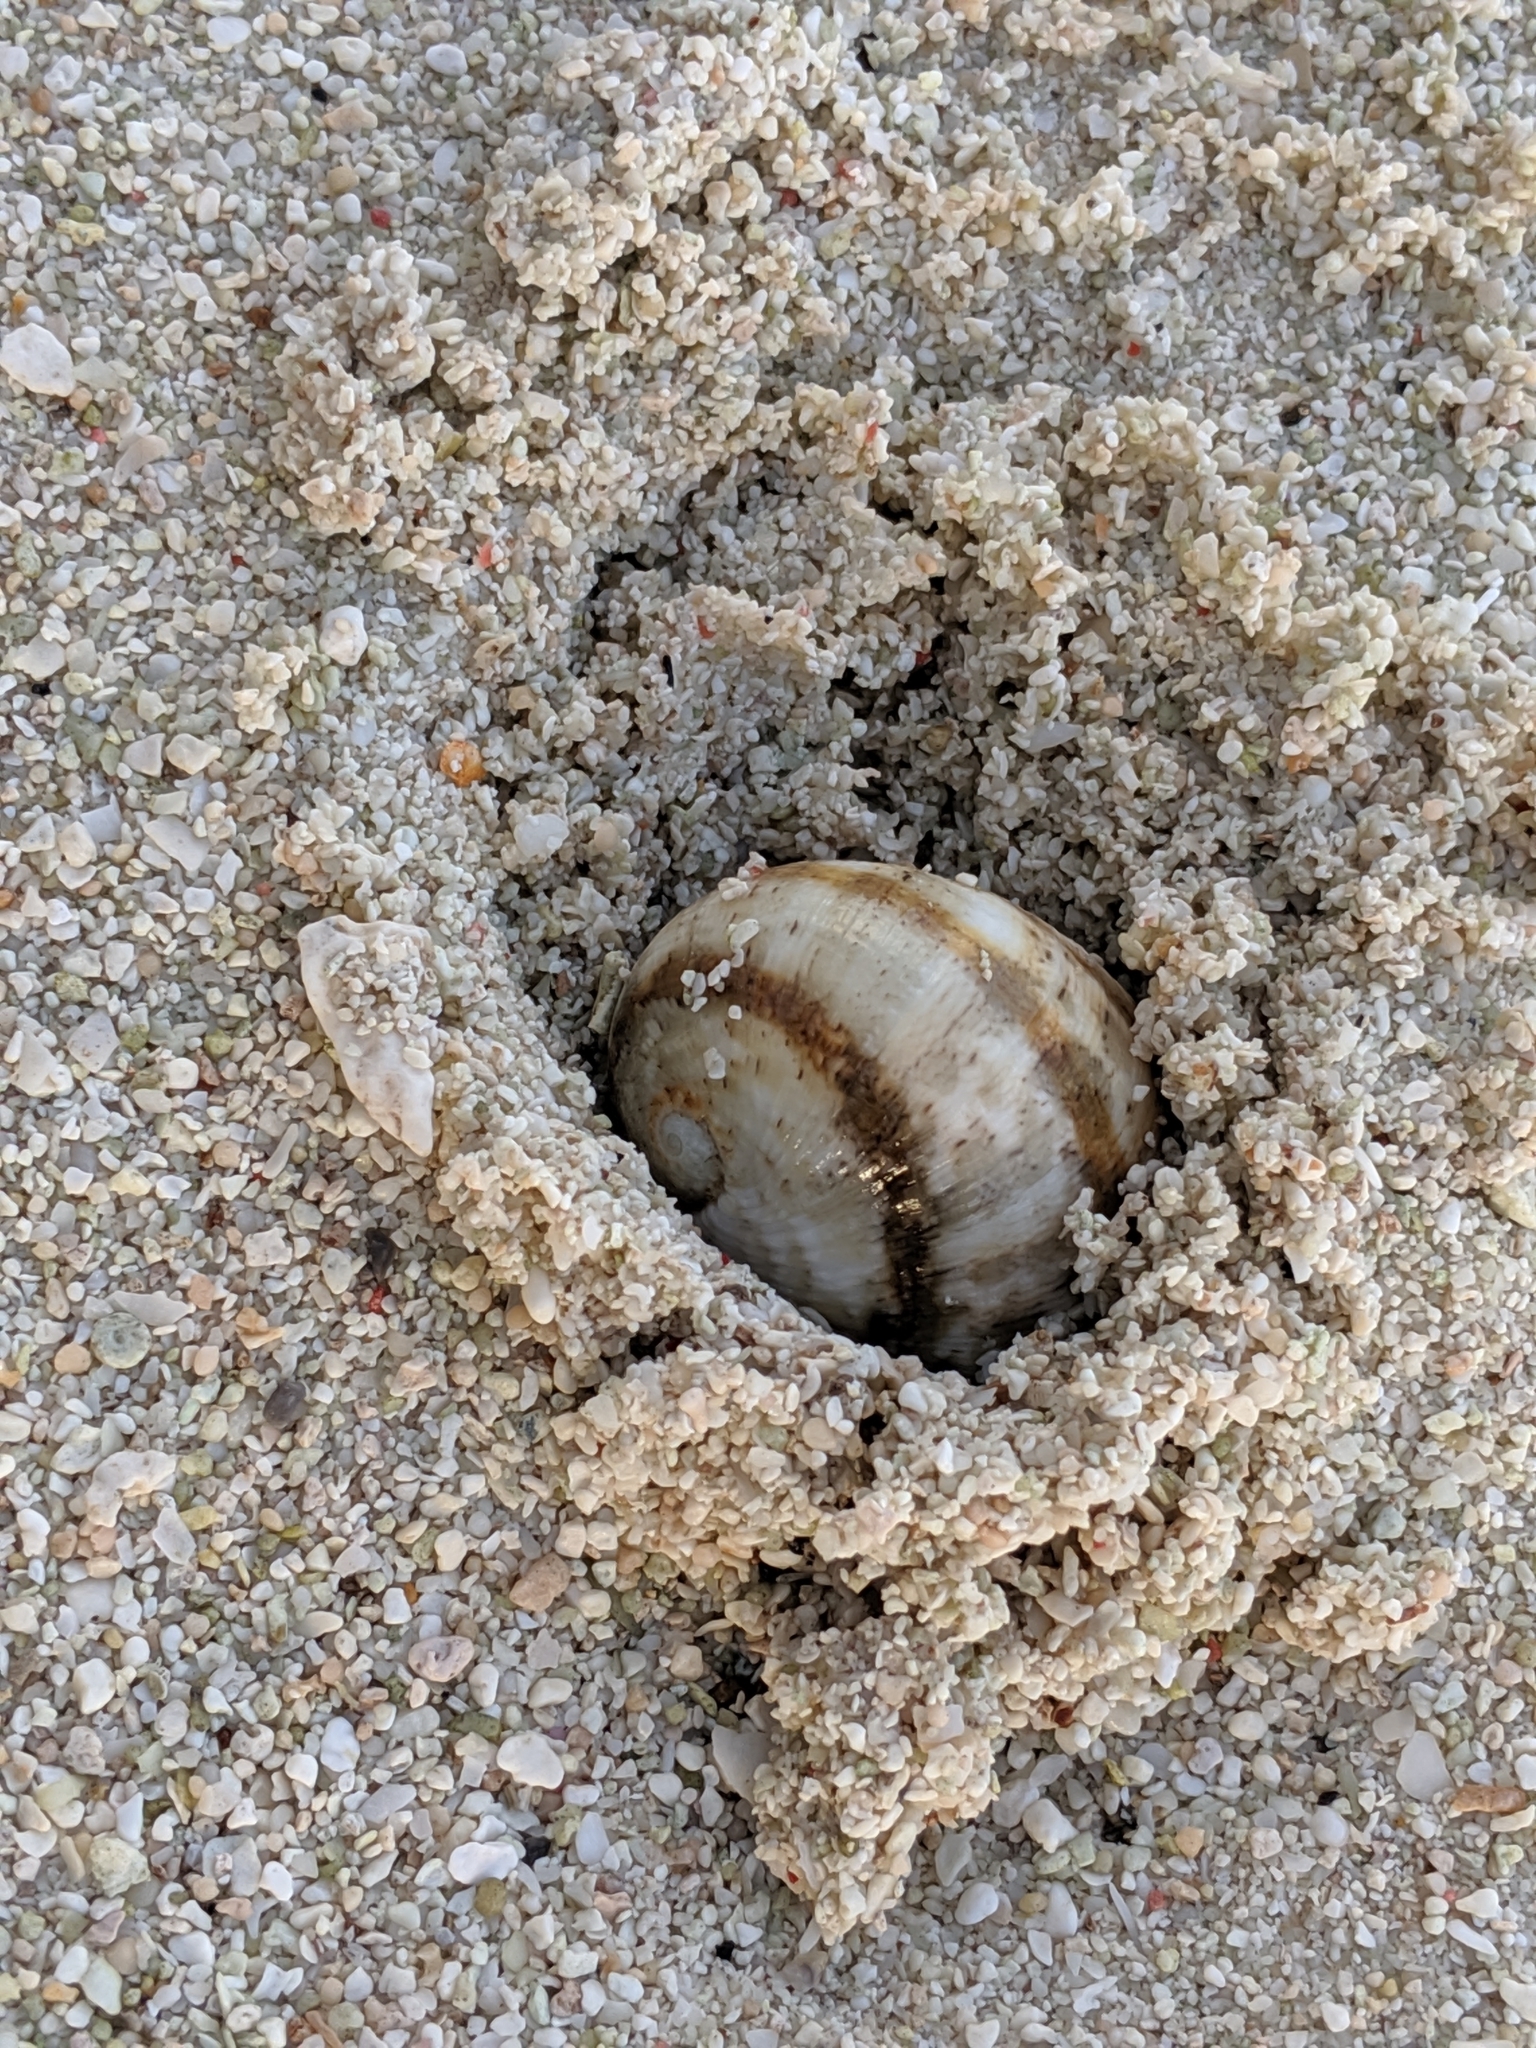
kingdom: Animalia
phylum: Mollusca
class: Gastropoda
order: Cycloneritida
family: Neritidae
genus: Nerita
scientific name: Nerita polita
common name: Polished nerite
